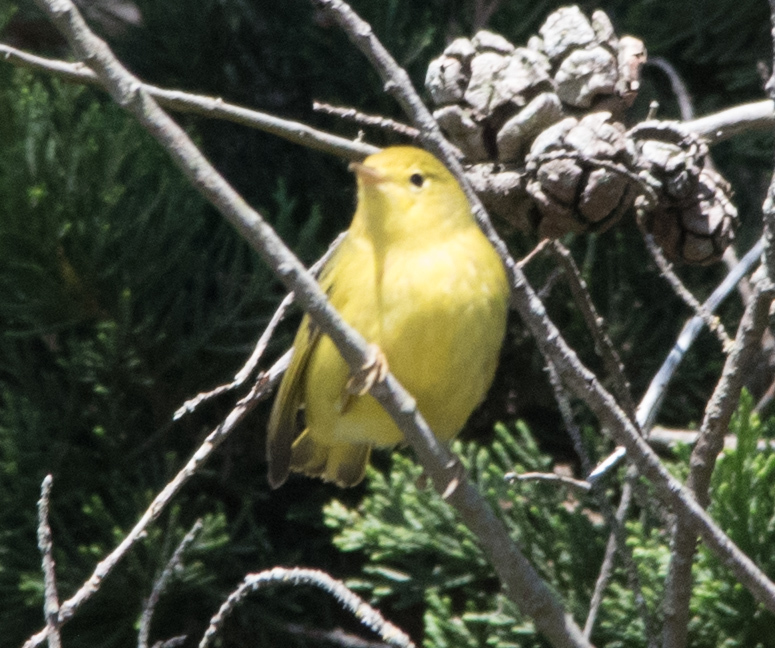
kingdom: Animalia
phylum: Chordata
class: Aves
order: Passeriformes
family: Parulidae
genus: Setophaga
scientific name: Setophaga petechia
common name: Yellow warbler
